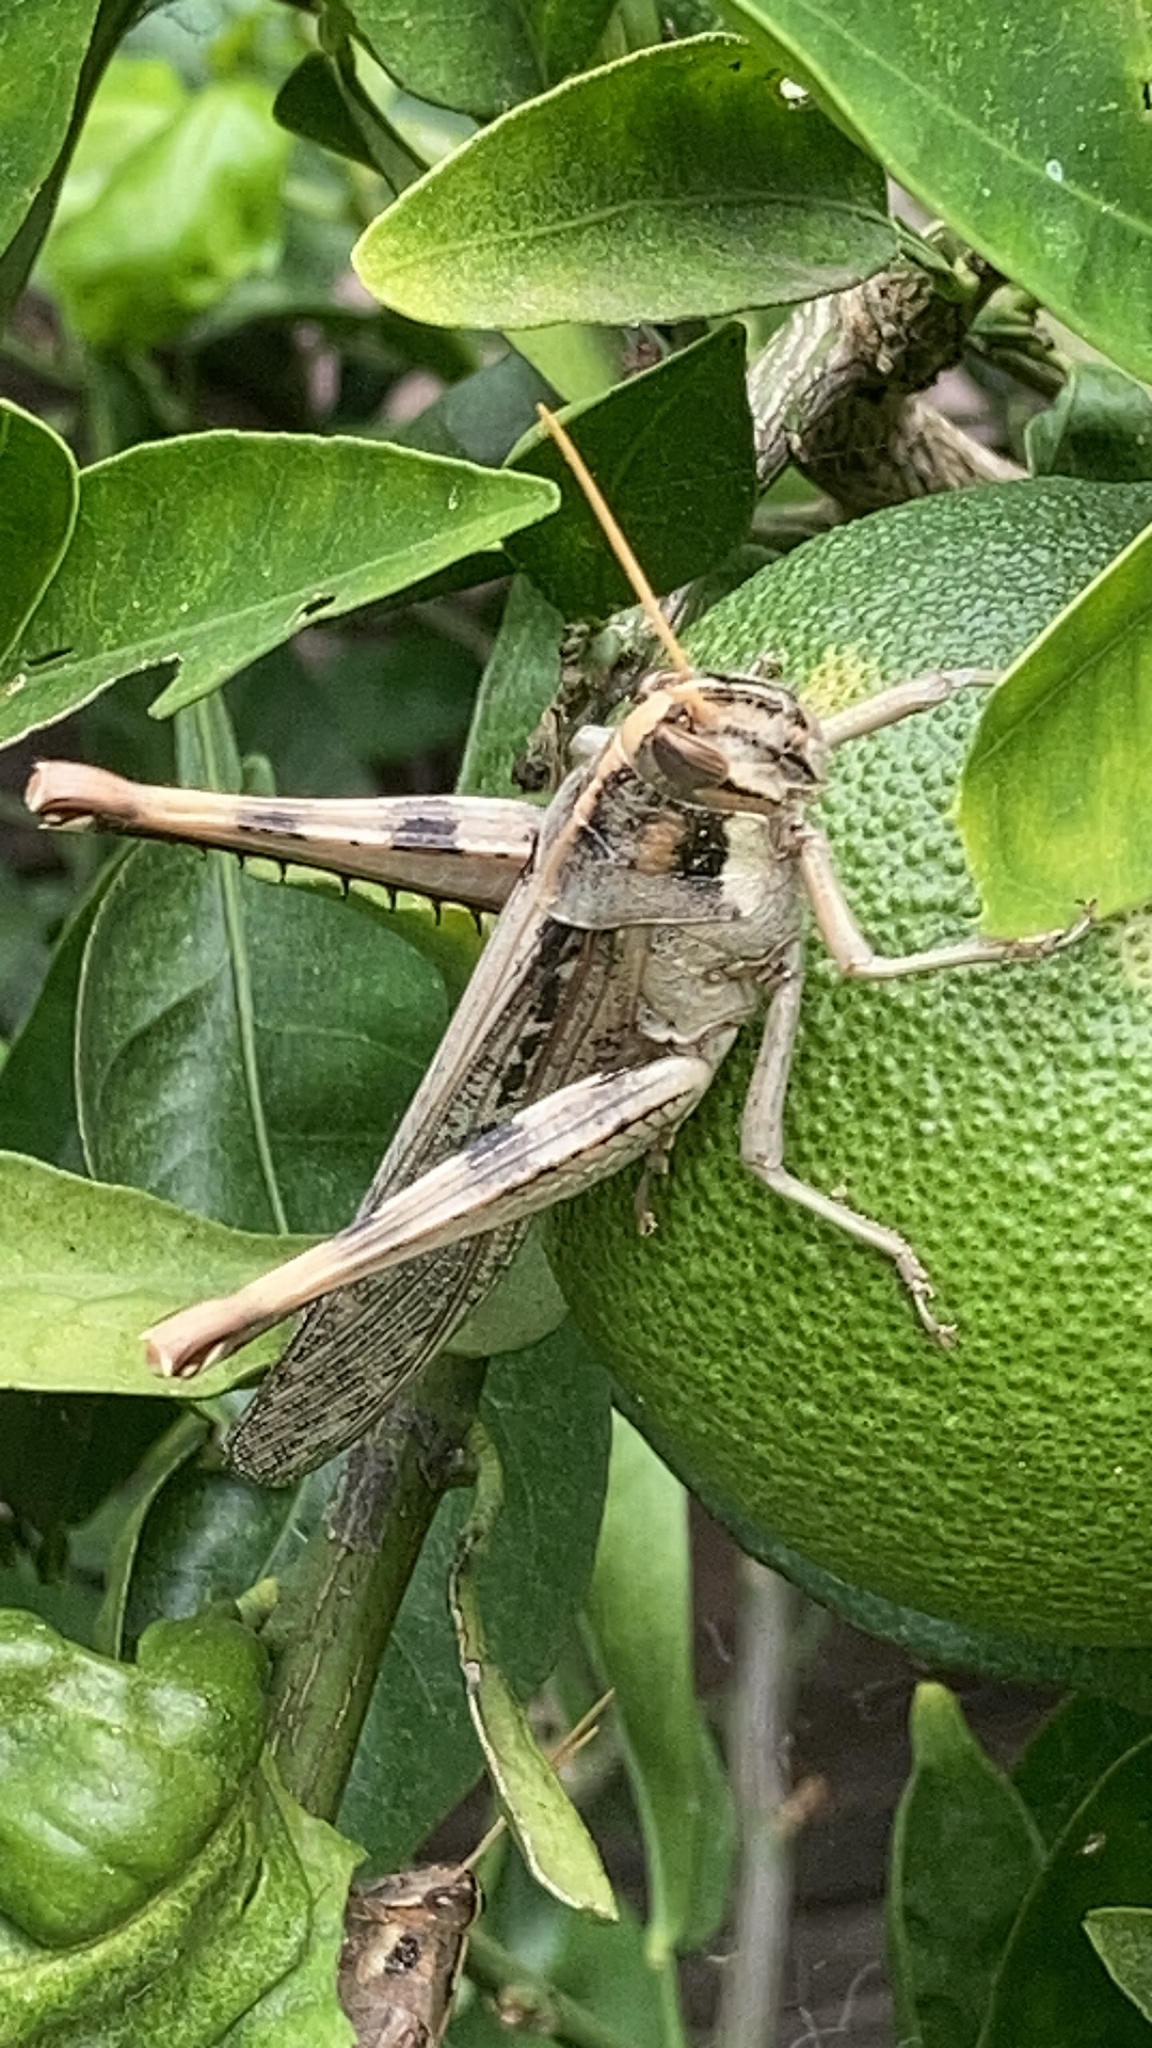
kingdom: Animalia
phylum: Arthropoda
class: Insecta
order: Orthoptera
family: Acrididae
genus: Schistocerca
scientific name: Schistocerca nitens
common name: Vagrant grasshopper
